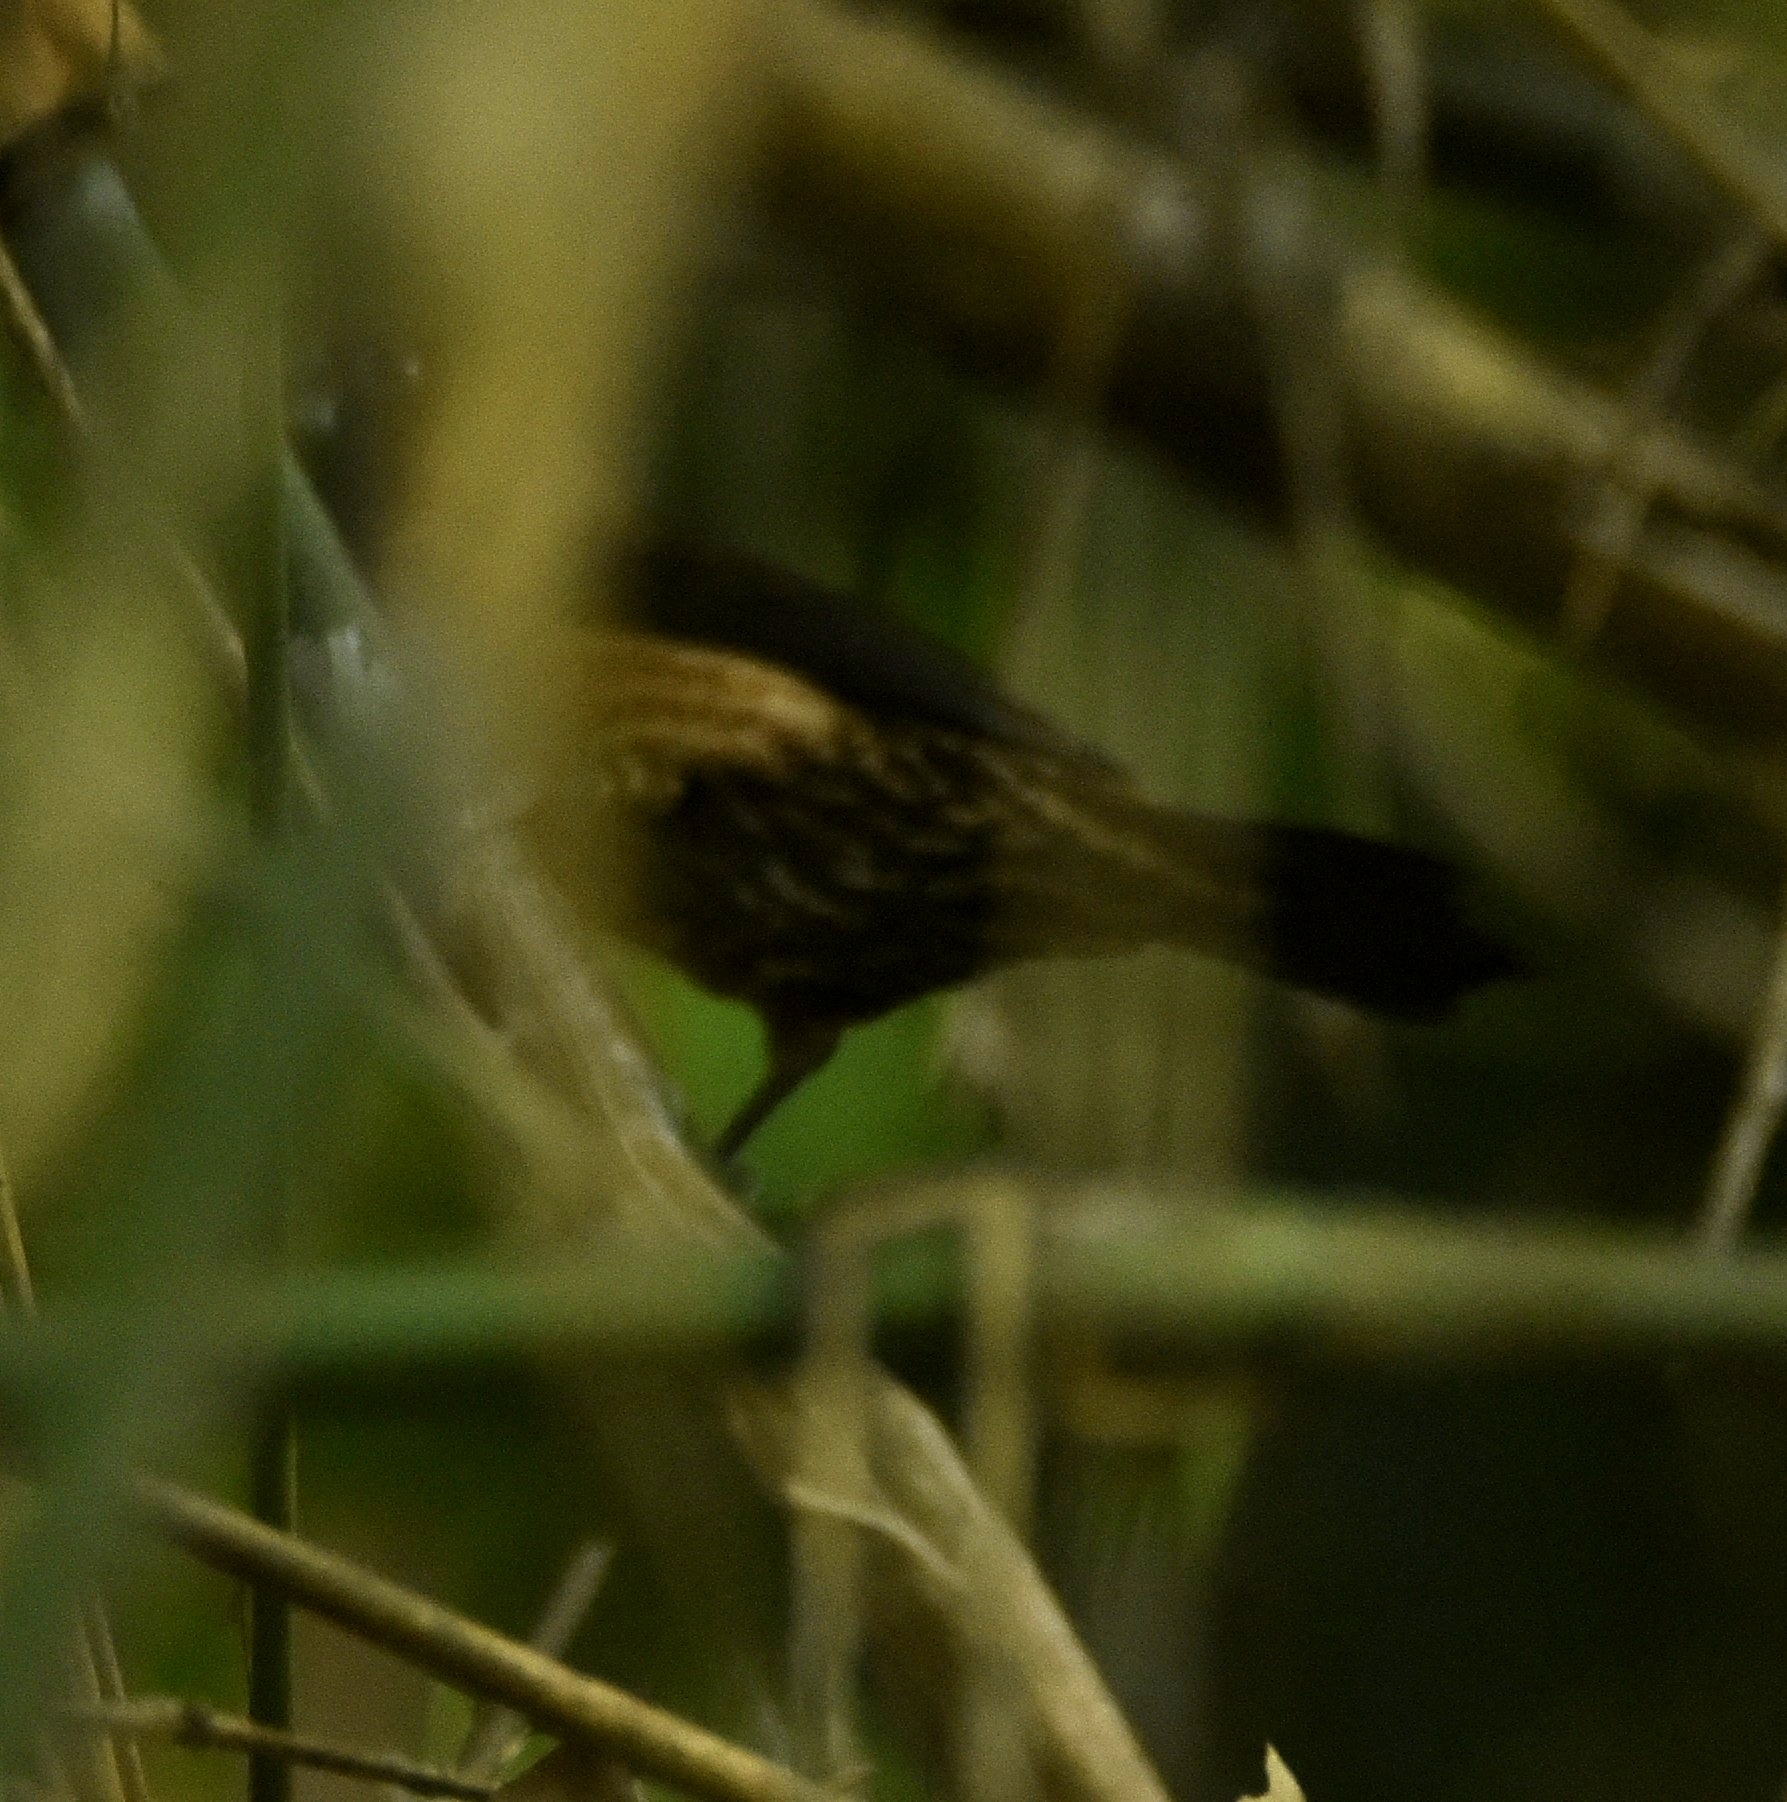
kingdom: Animalia
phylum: Chordata
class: Aves
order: Passeriformes
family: Estrildidae
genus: Lonchura
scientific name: Lonchura kelaarti
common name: Black-throated munia
